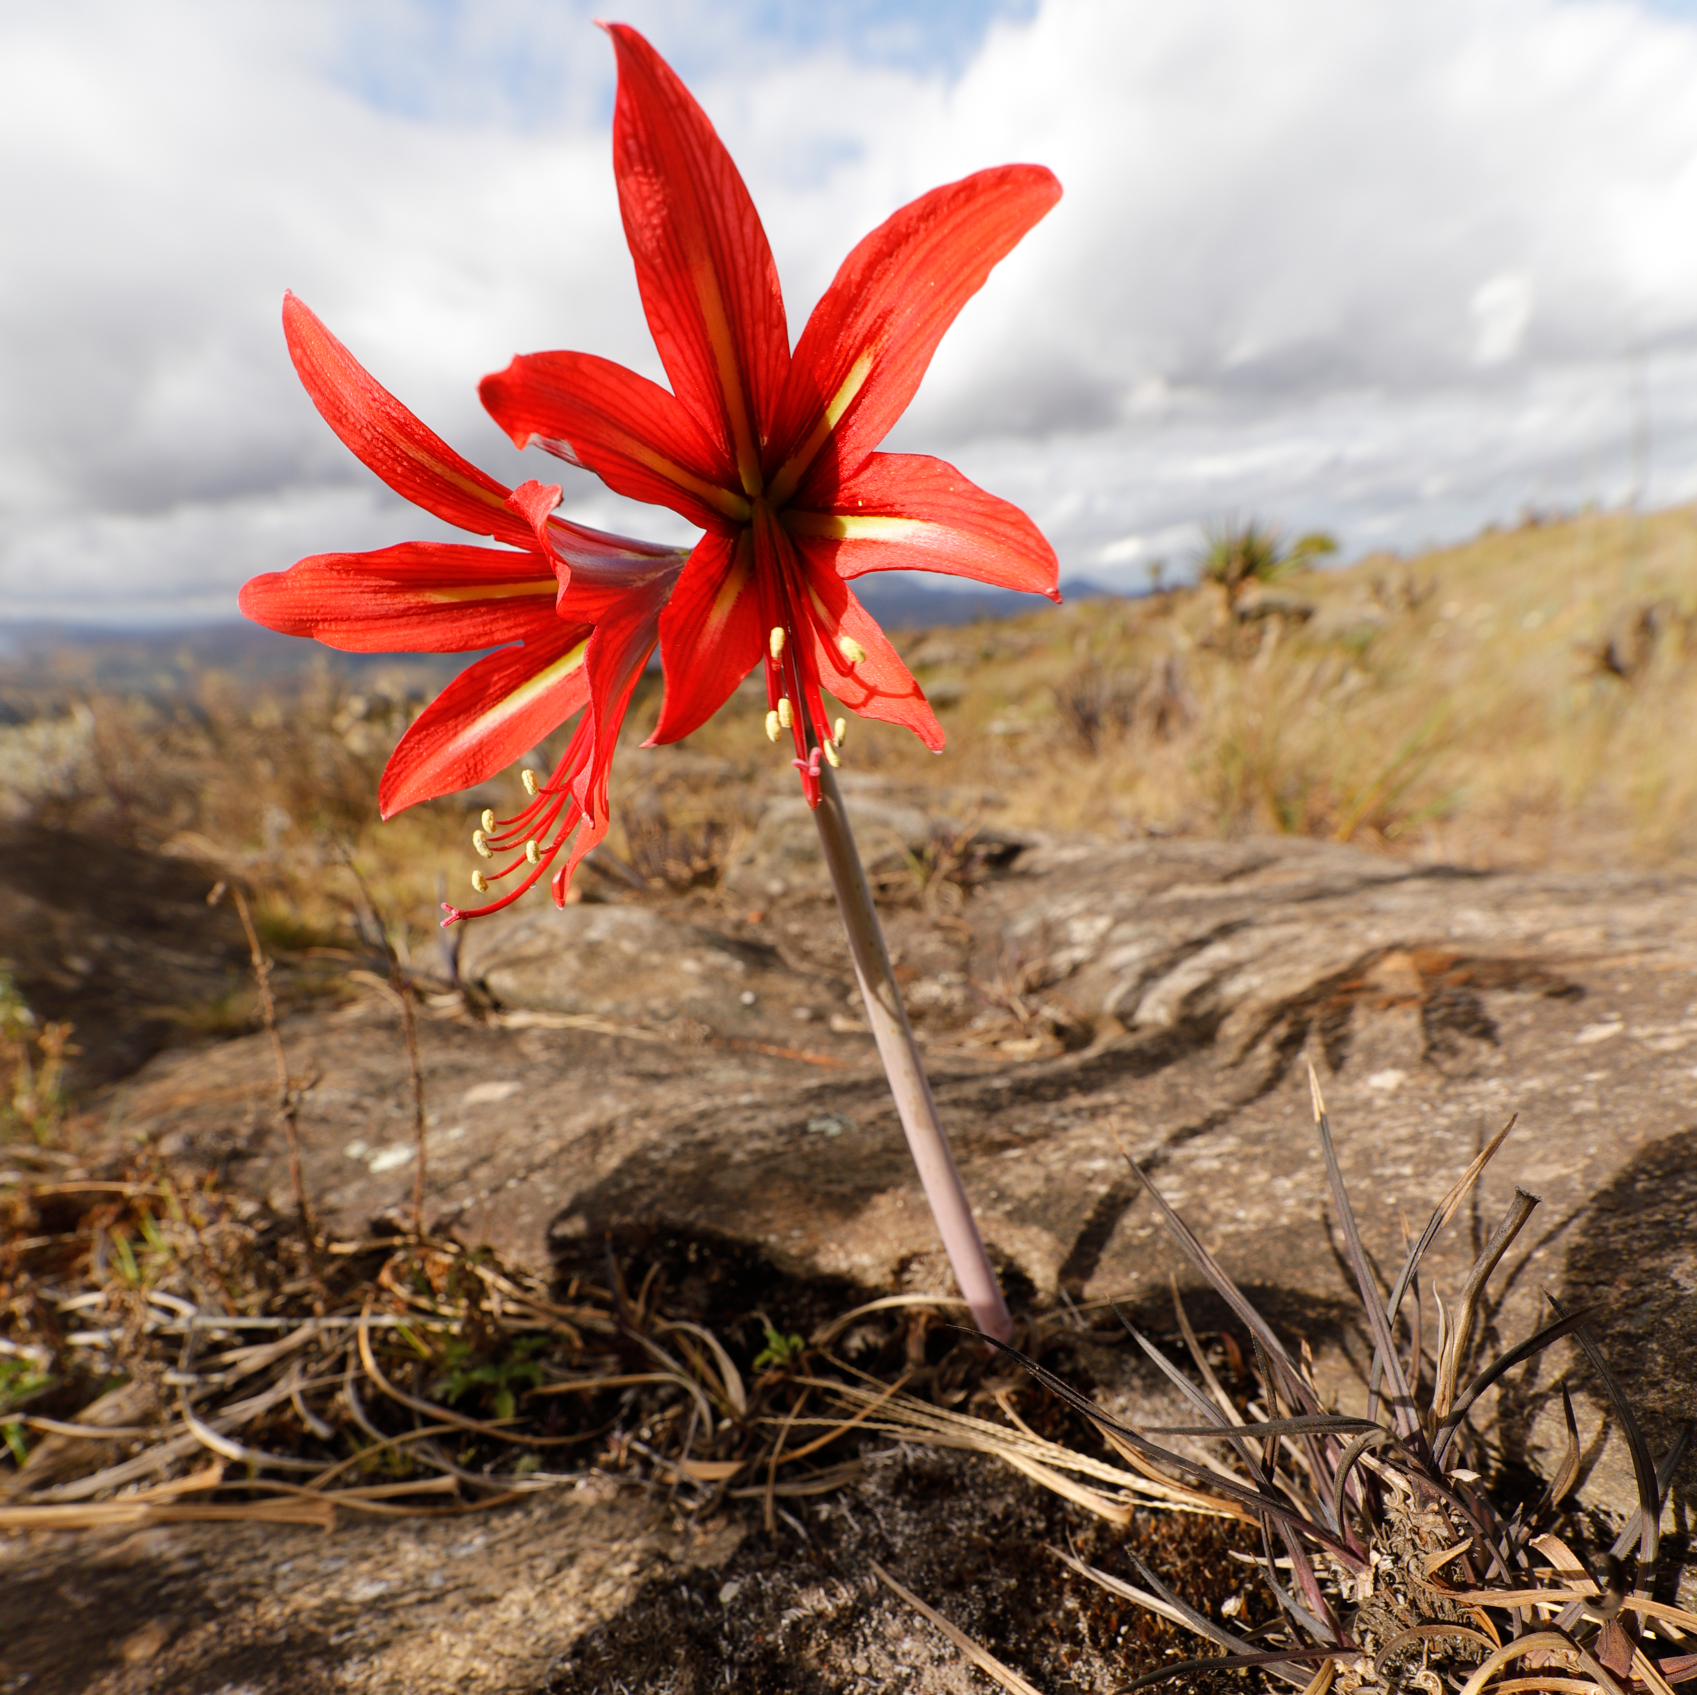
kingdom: Plantae
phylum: Tracheophyta
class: Liliopsida
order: Asparagales
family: Amaryllidaceae
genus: Hippeastrum
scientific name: Hippeastrum morelianum
